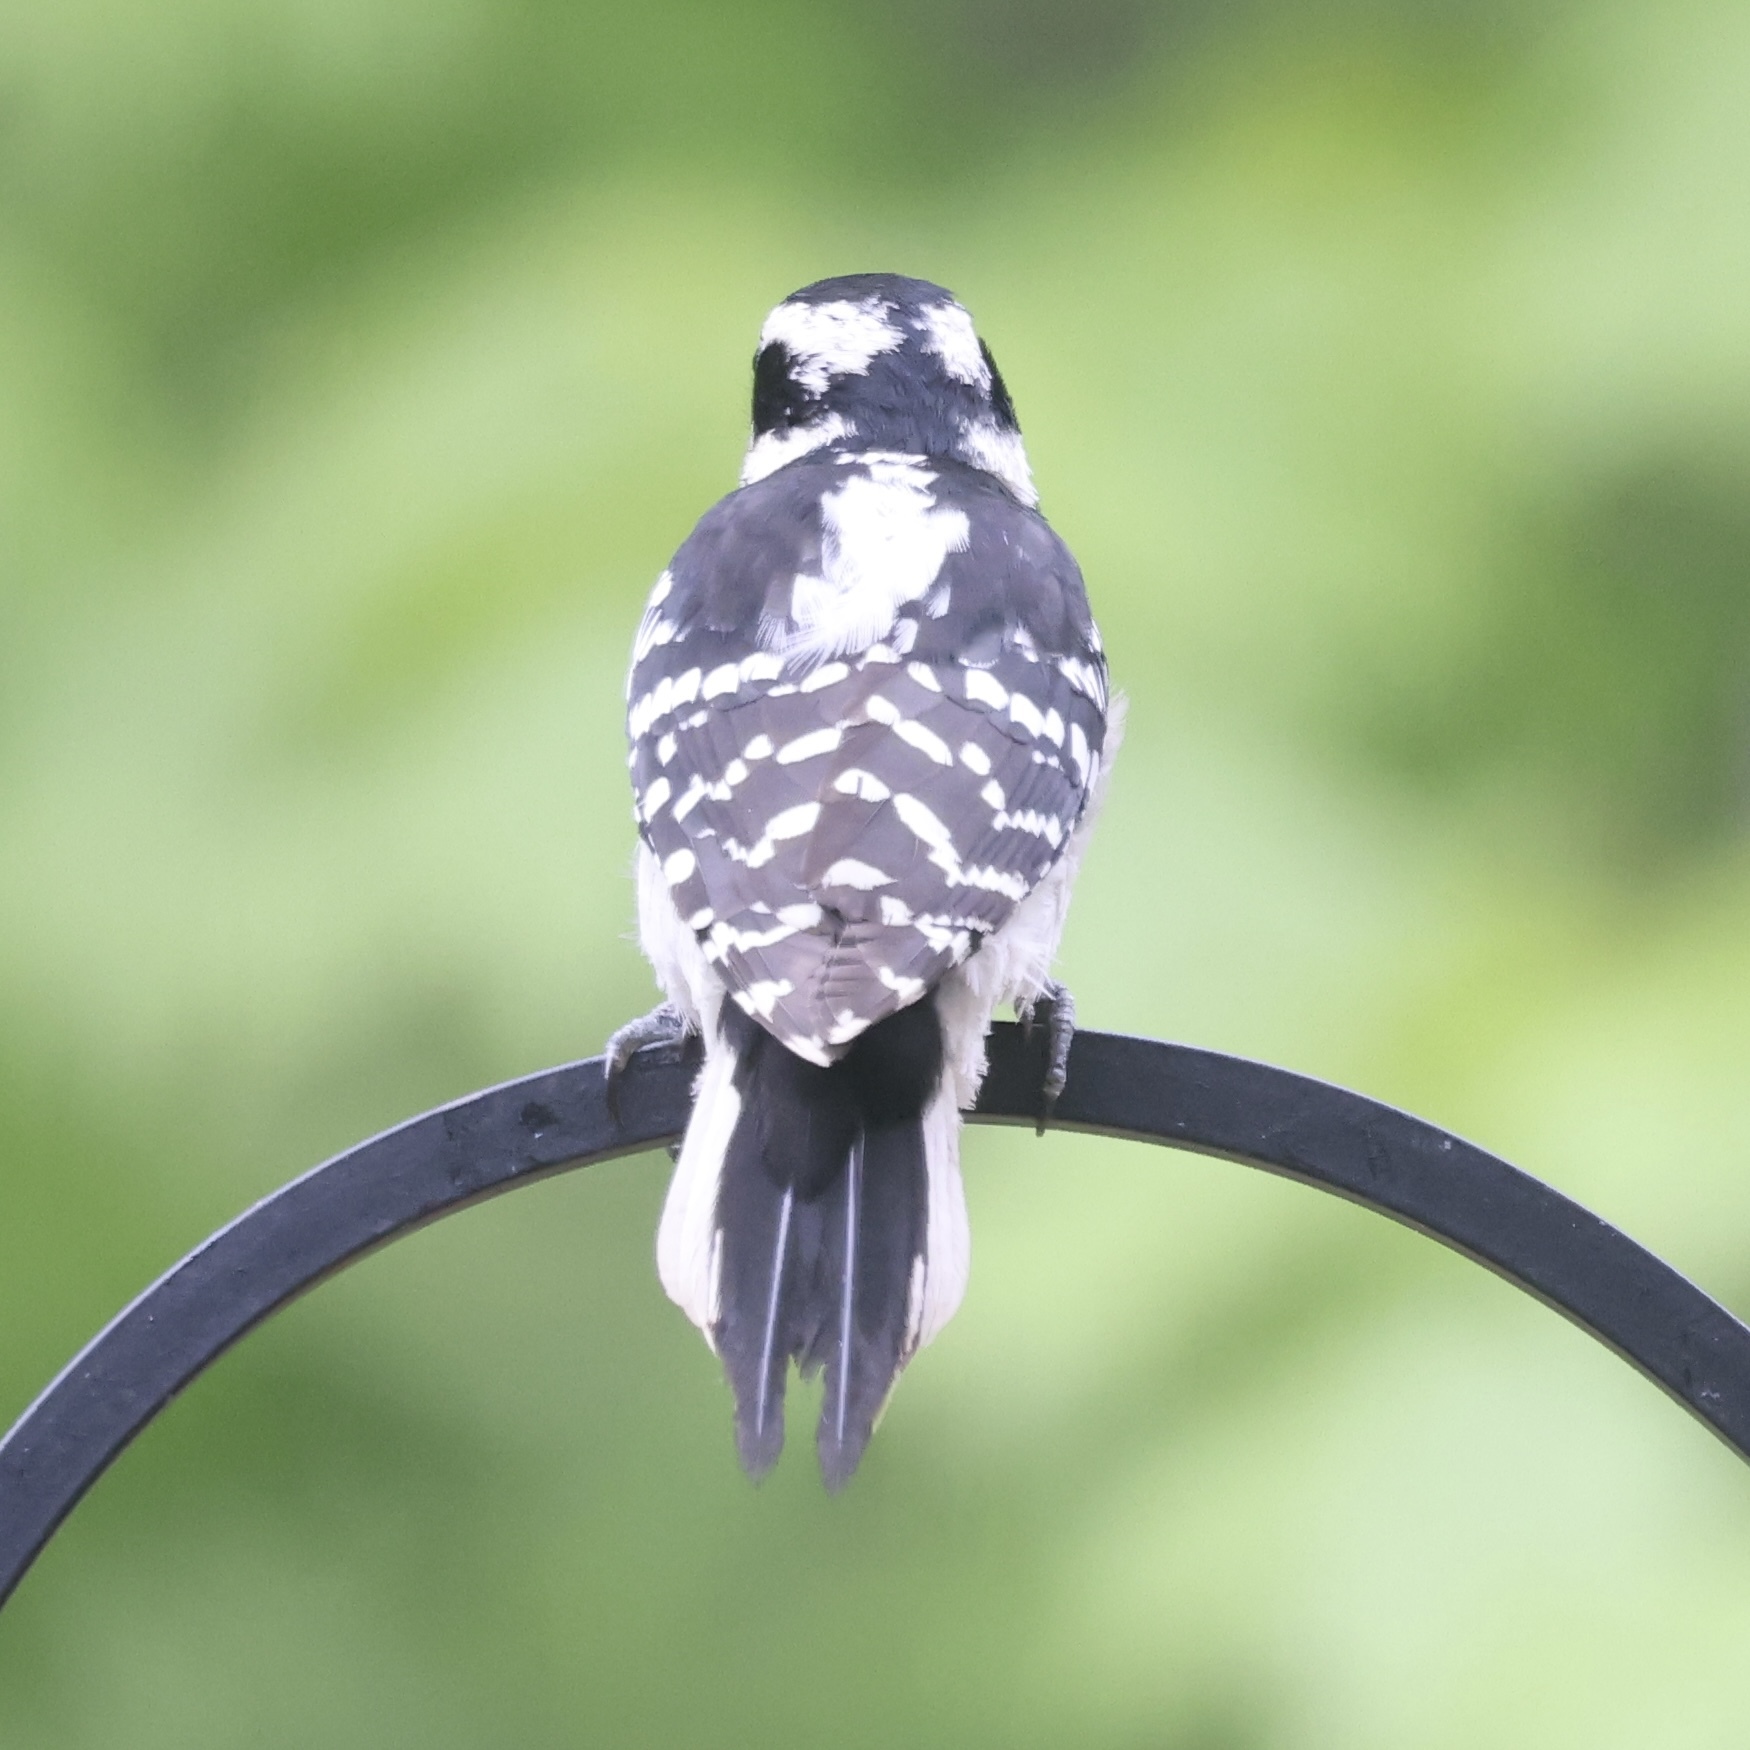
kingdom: Animalia
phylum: Chordata
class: Aves
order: Piciformes
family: Picidae
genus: Leuconotopicus
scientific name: Leuconotopicus villosus
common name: Hairy woodpecker
